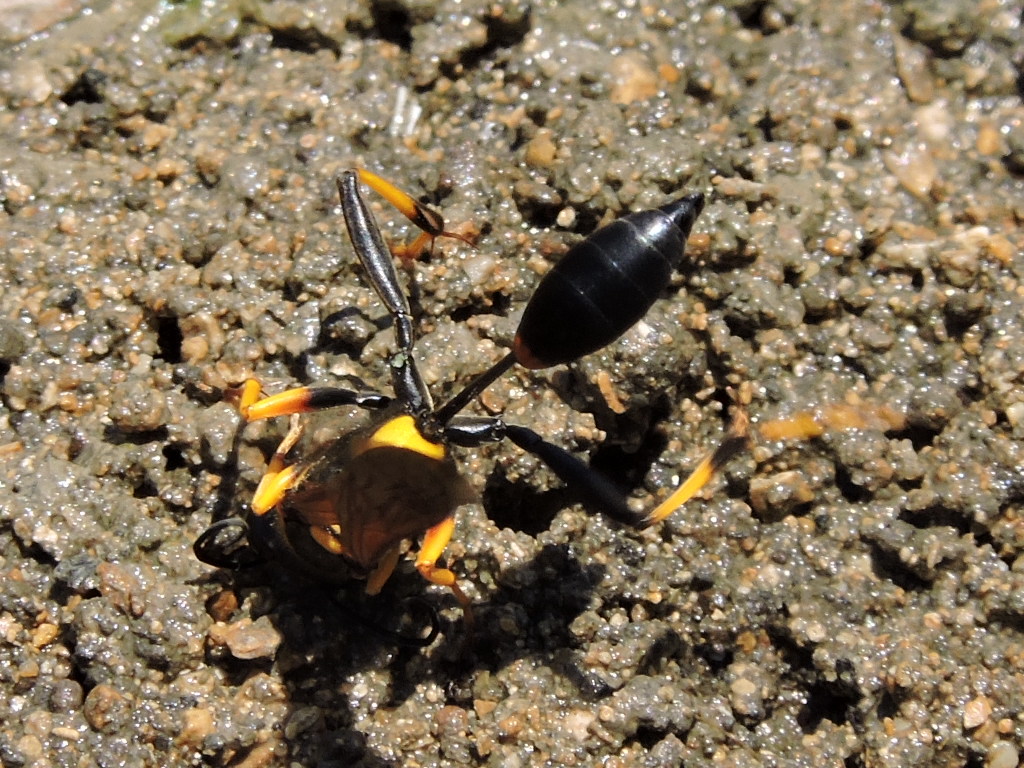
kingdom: Animalia
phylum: Arthropoda
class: Insecta
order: Hymenoptera
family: Sphecidae
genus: Sceliphron
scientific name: Sceliphron caementarium
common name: Mud dauber
